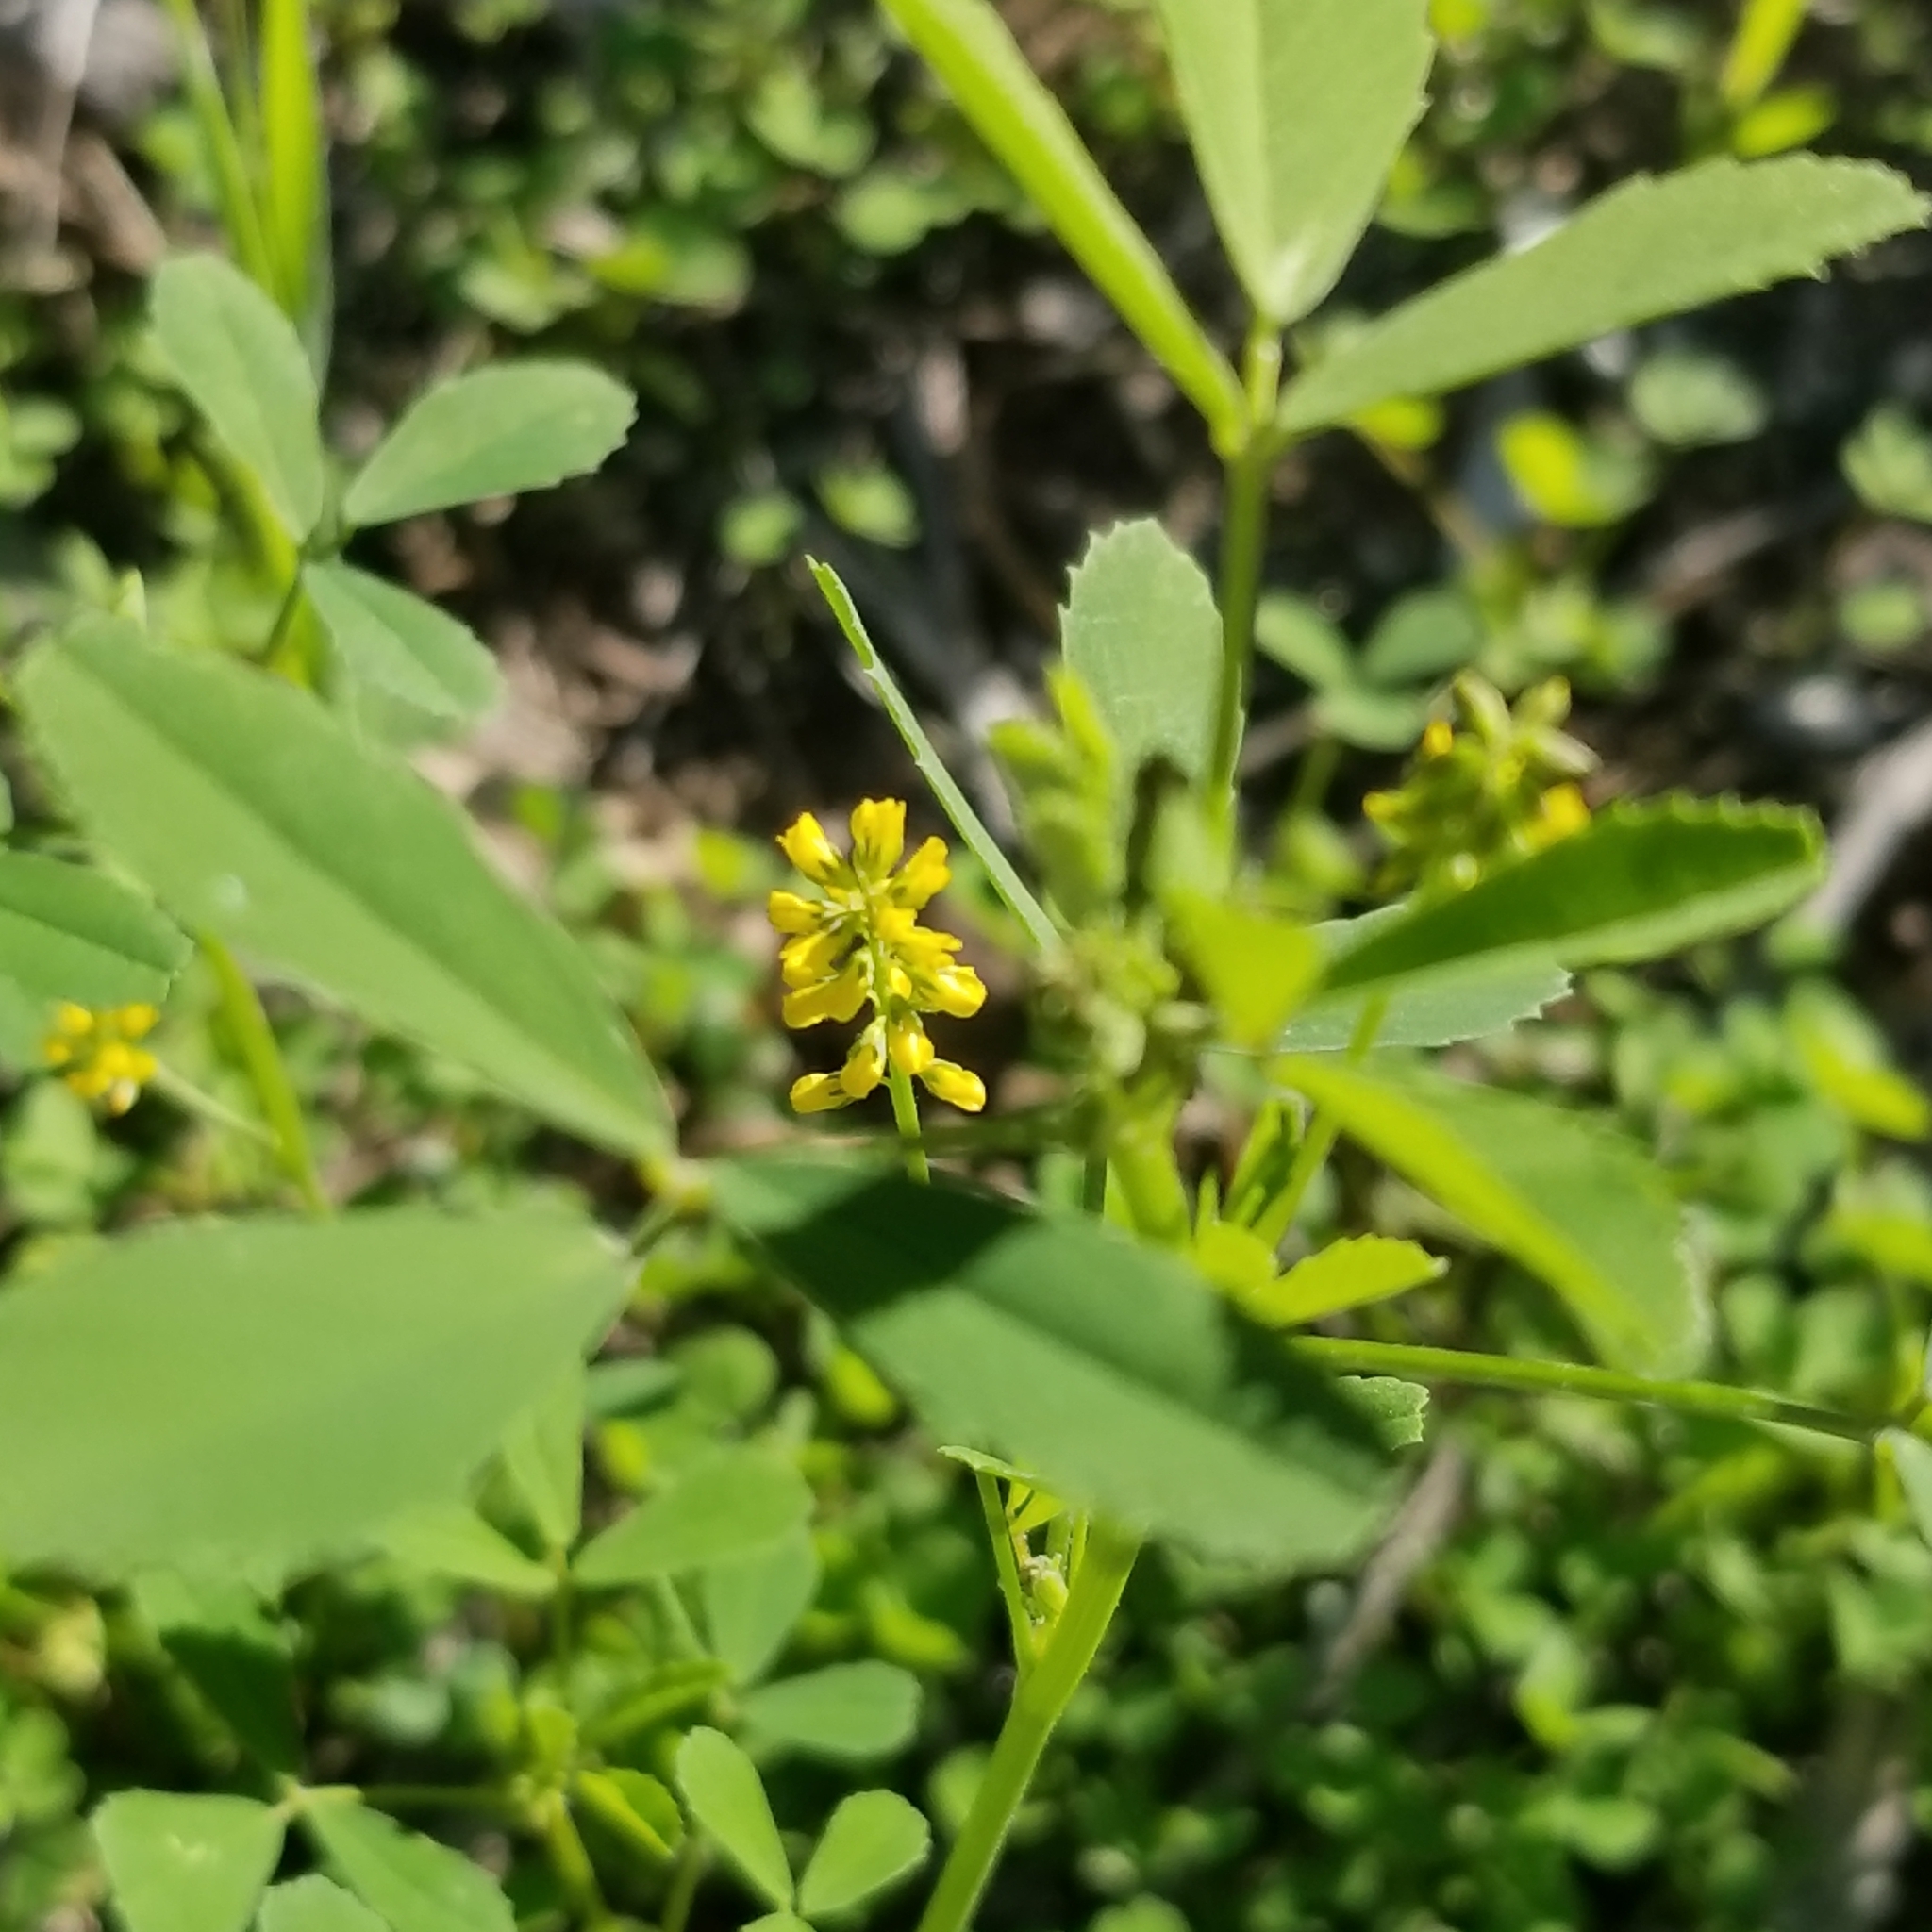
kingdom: Plantae
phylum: Tracheophyta
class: Magnoliopsida
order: Fabales
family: Fabaceae
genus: Melilotus
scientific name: Melilotus indicus
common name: Small melilot
